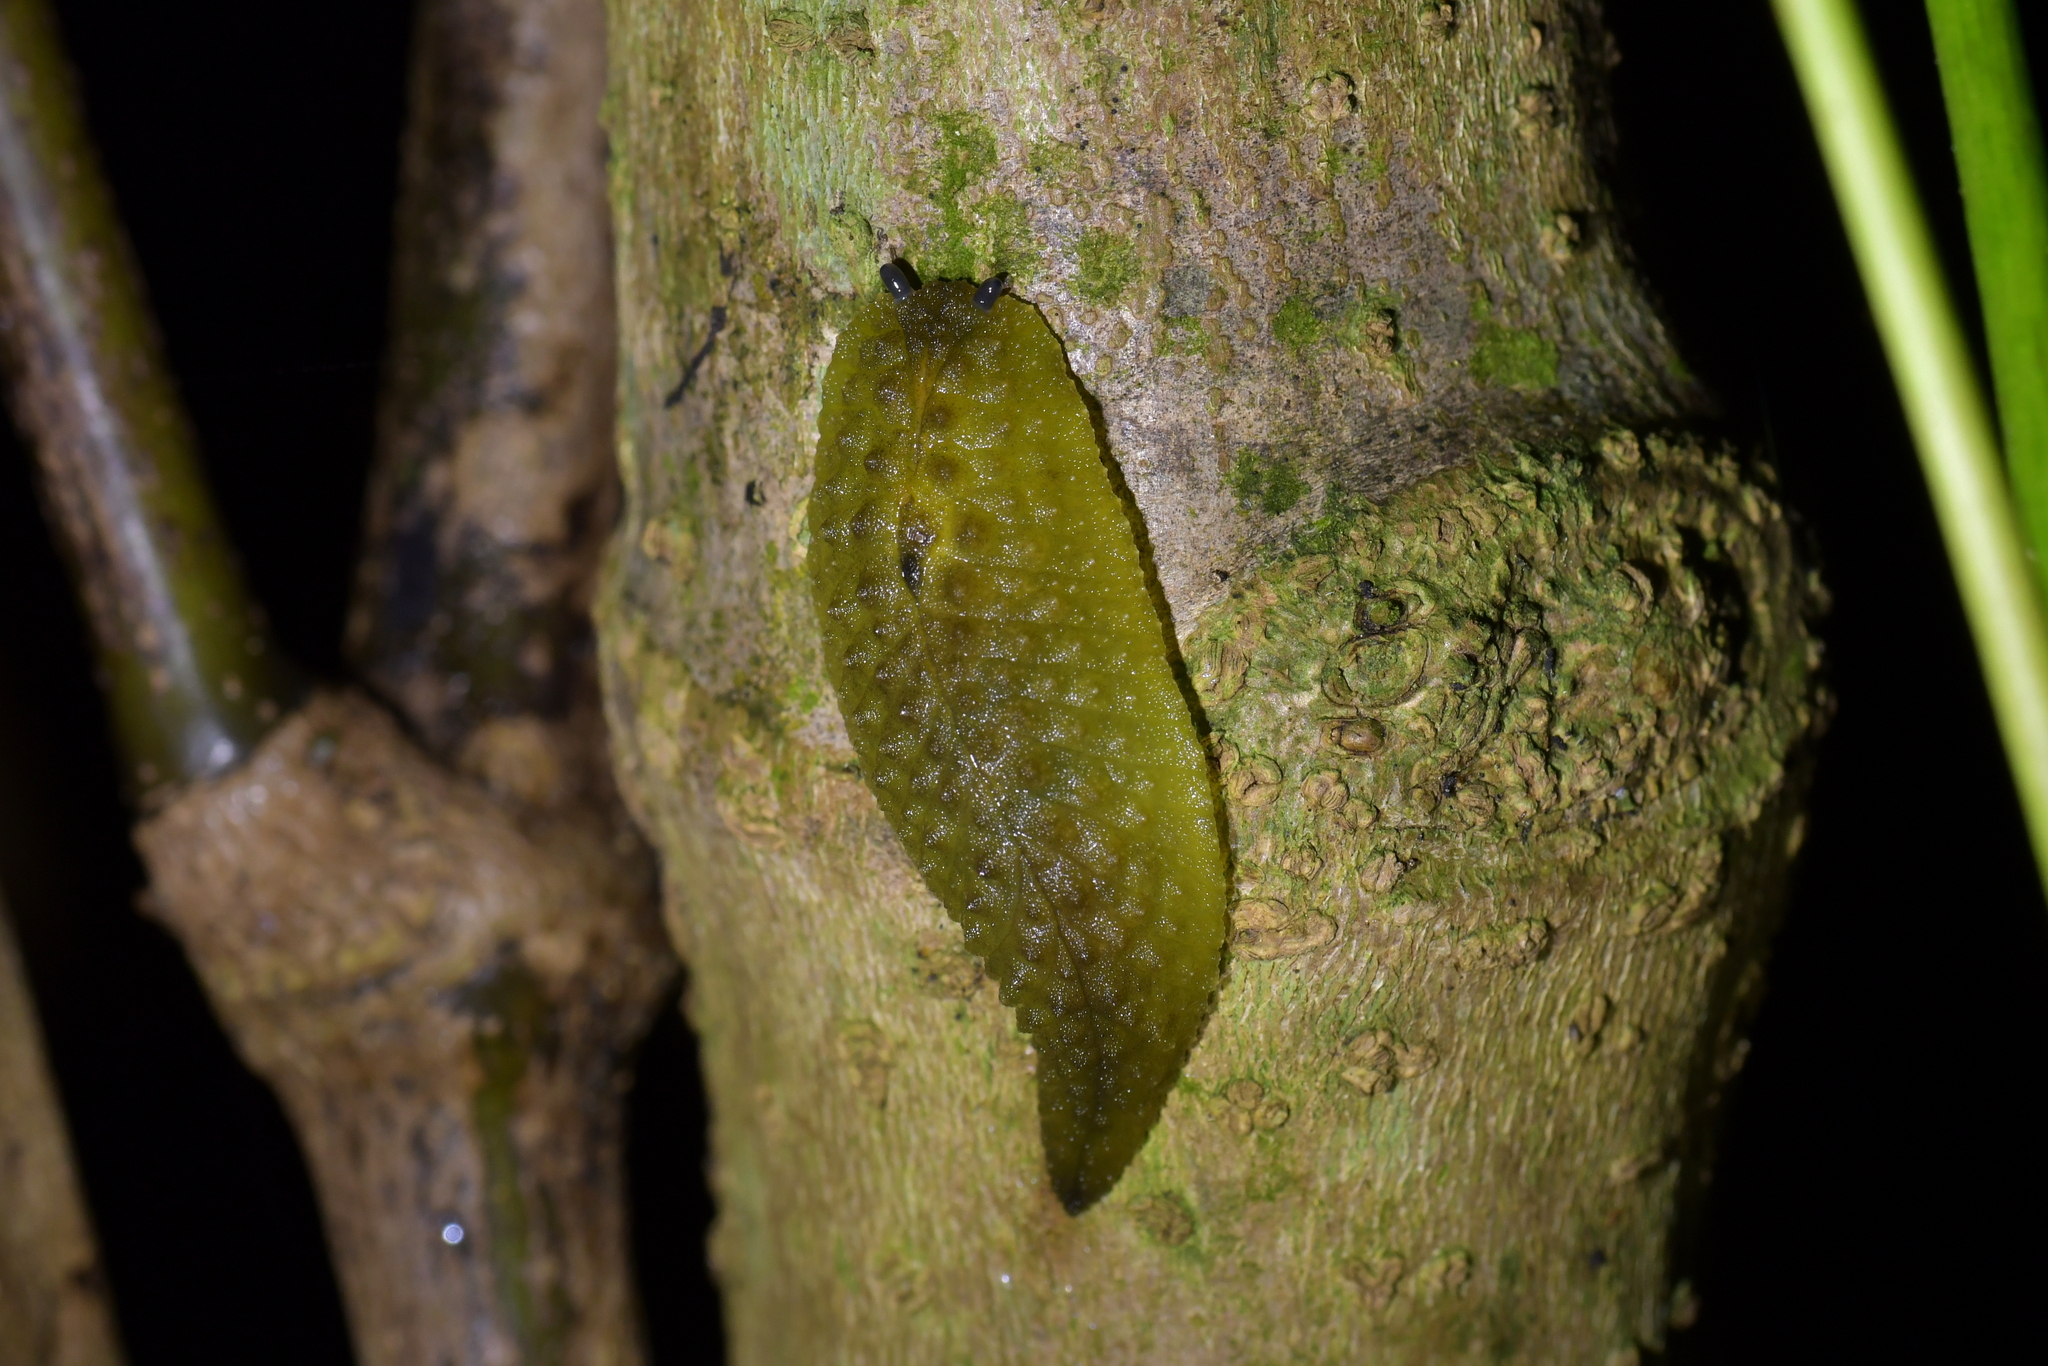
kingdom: Animalia
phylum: Mollusca
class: Gastropoda
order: Stylommatophora
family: Athoracophoridae
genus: Athoracophorus
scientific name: Athoracophorus papillatus
